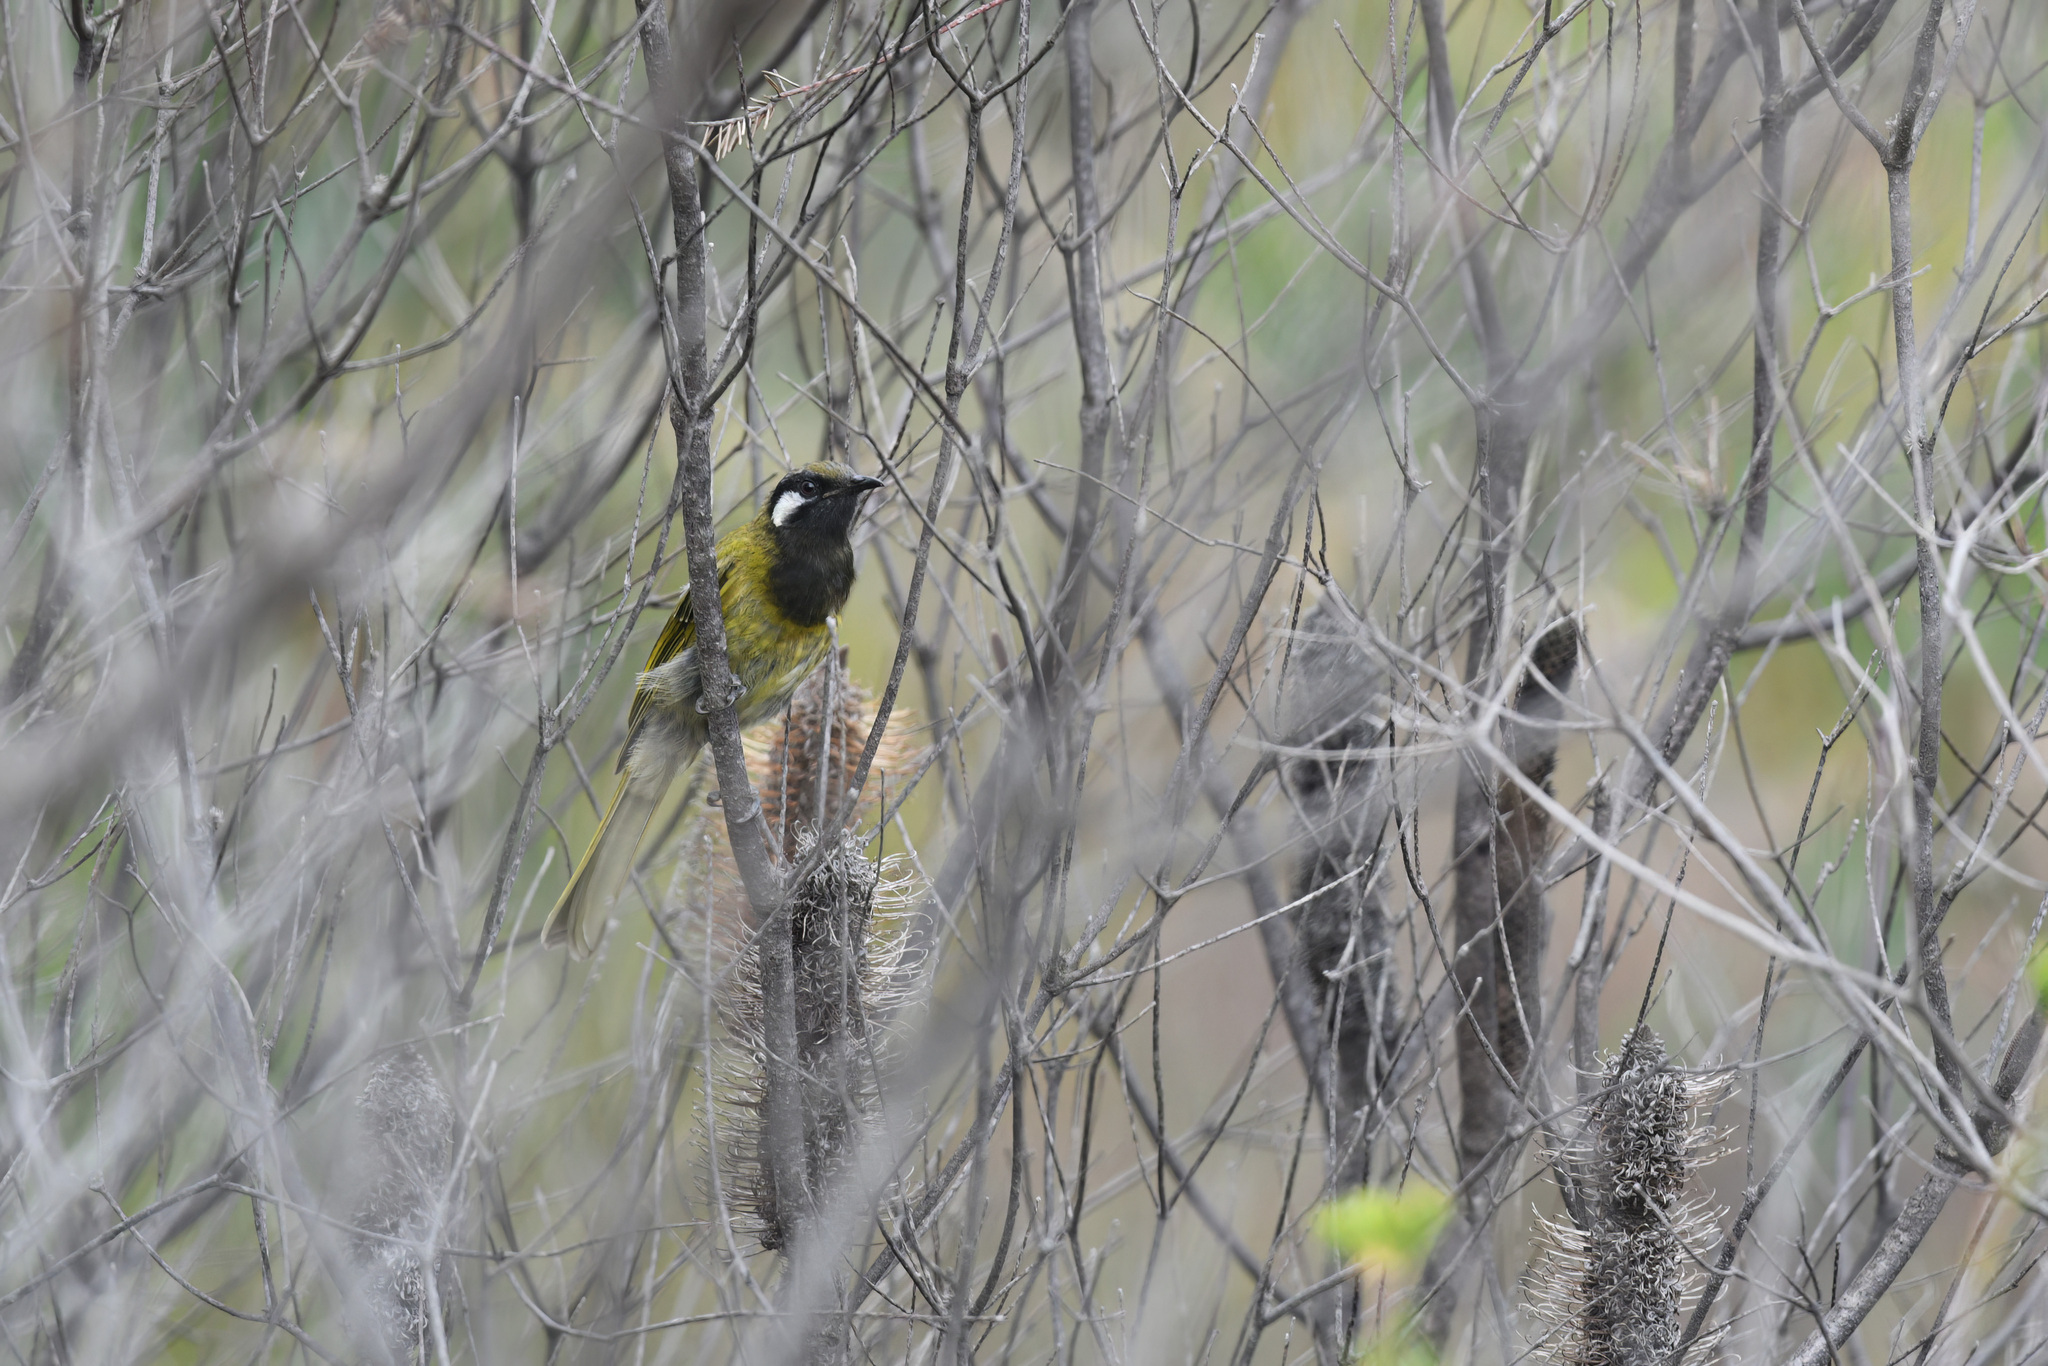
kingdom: Animalia
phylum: Chordata
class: Aves
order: Passeriformes
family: Meliphagidae
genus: Nesoptilotis
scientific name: Nesoptilotis leucotis
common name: White-eared honeyeater
